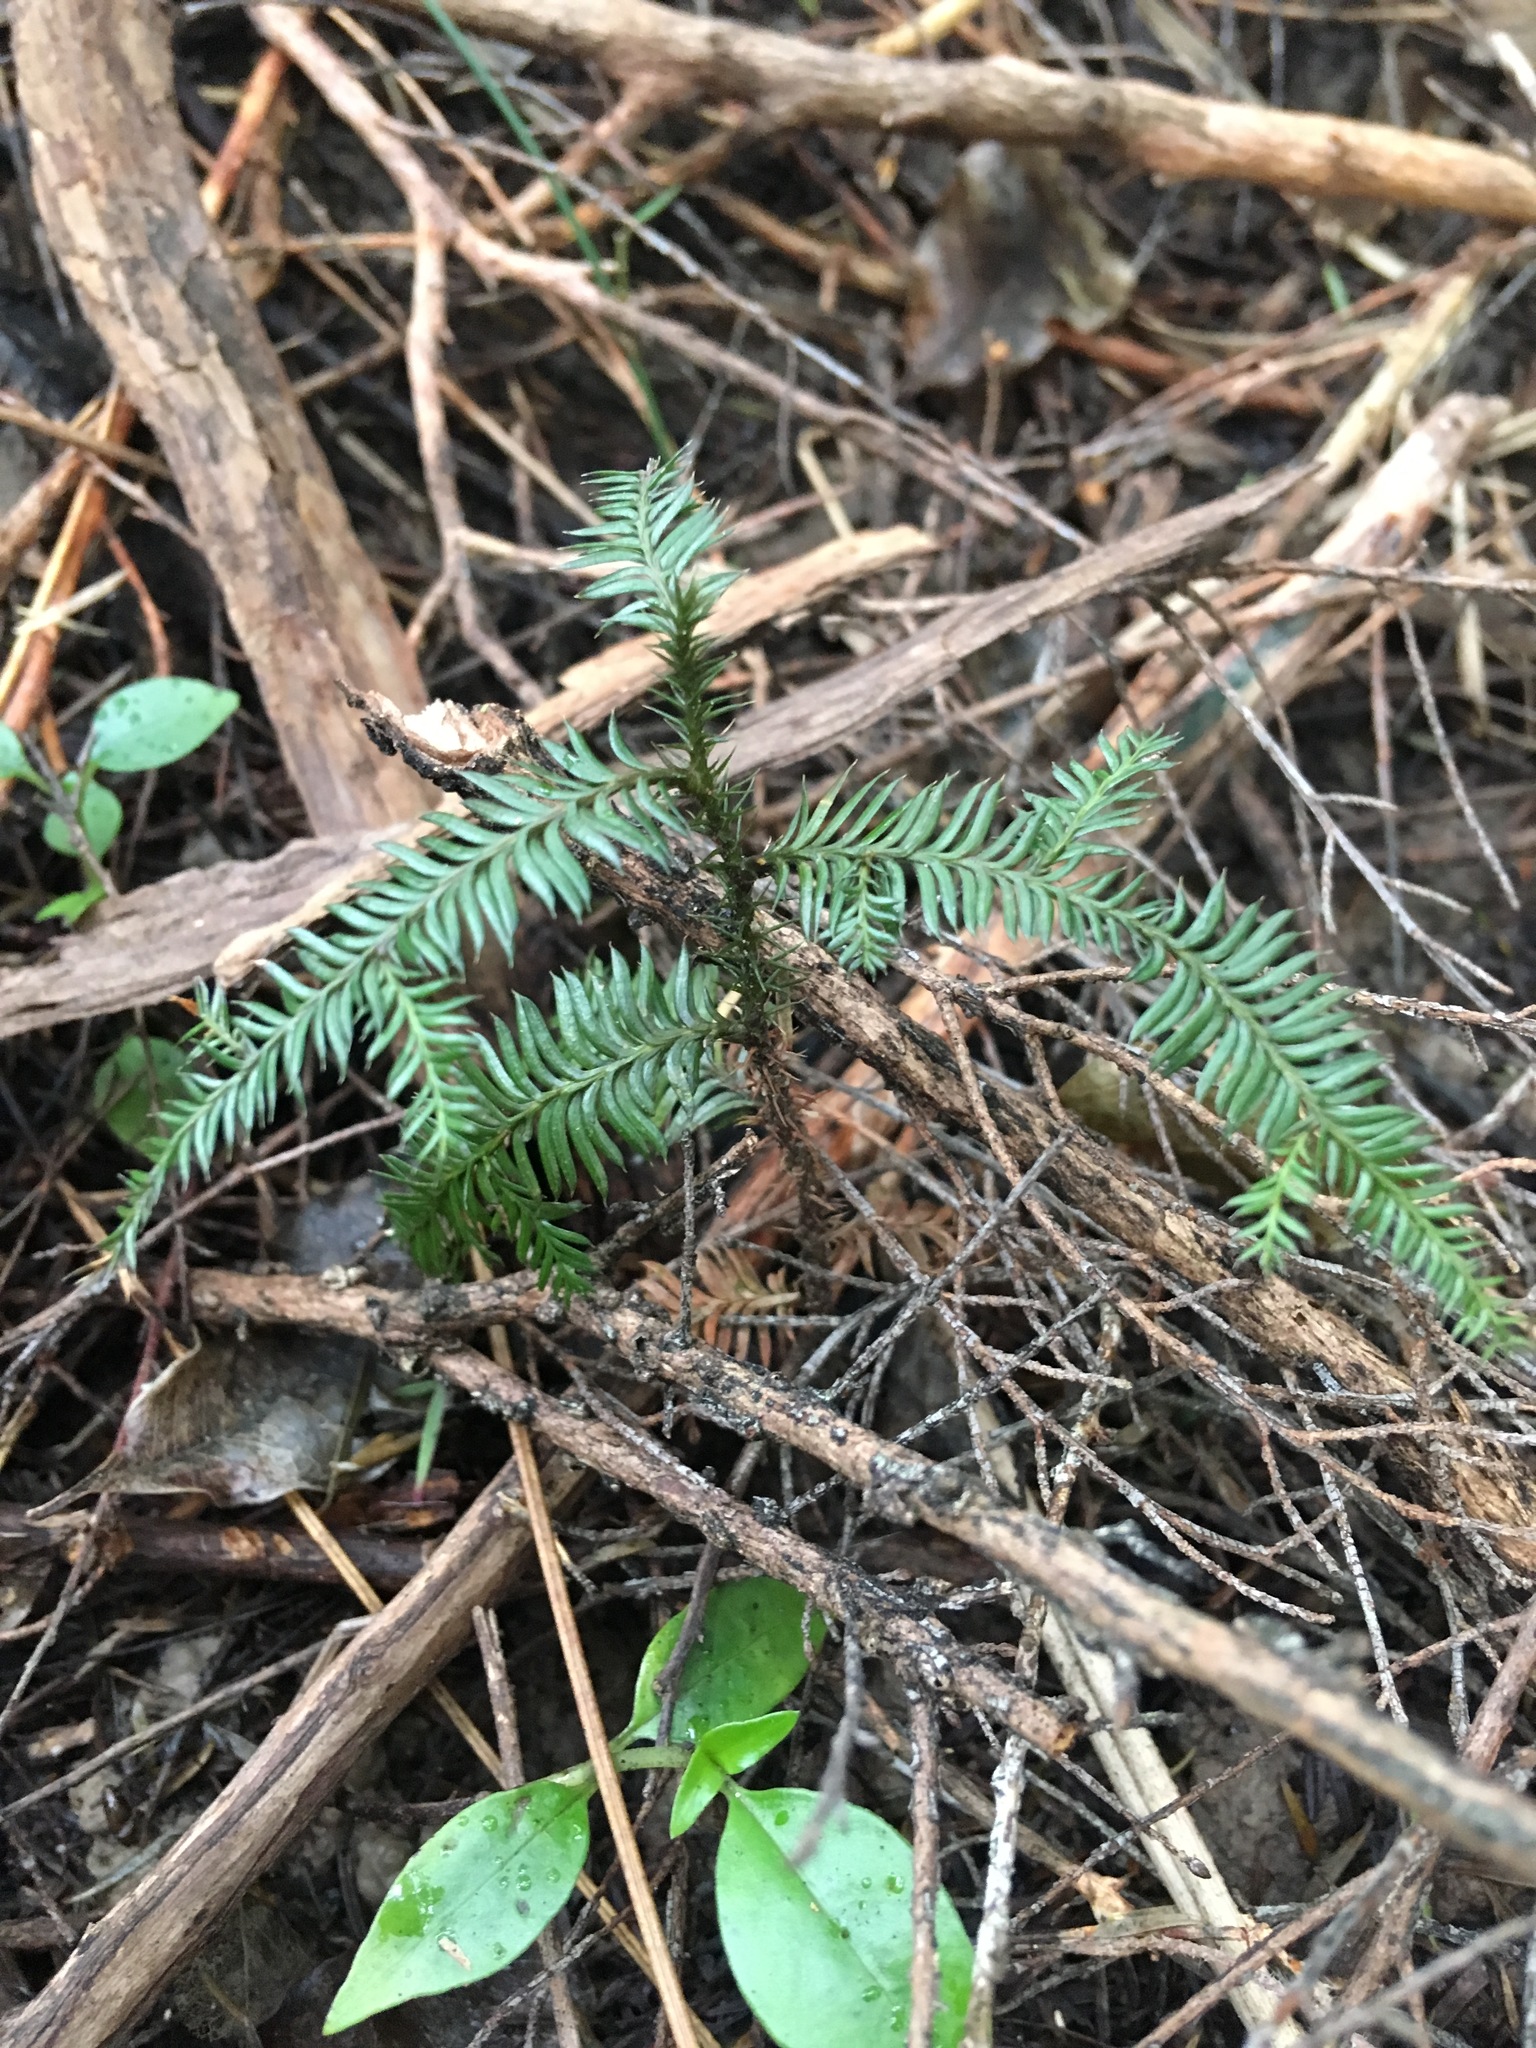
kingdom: Plantae
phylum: Tracheophyta
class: Pinopsida
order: Pinales
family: Podocarpaceae
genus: Dacrycarpus
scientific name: Dacrycarpus dacrydioides
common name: White pine
